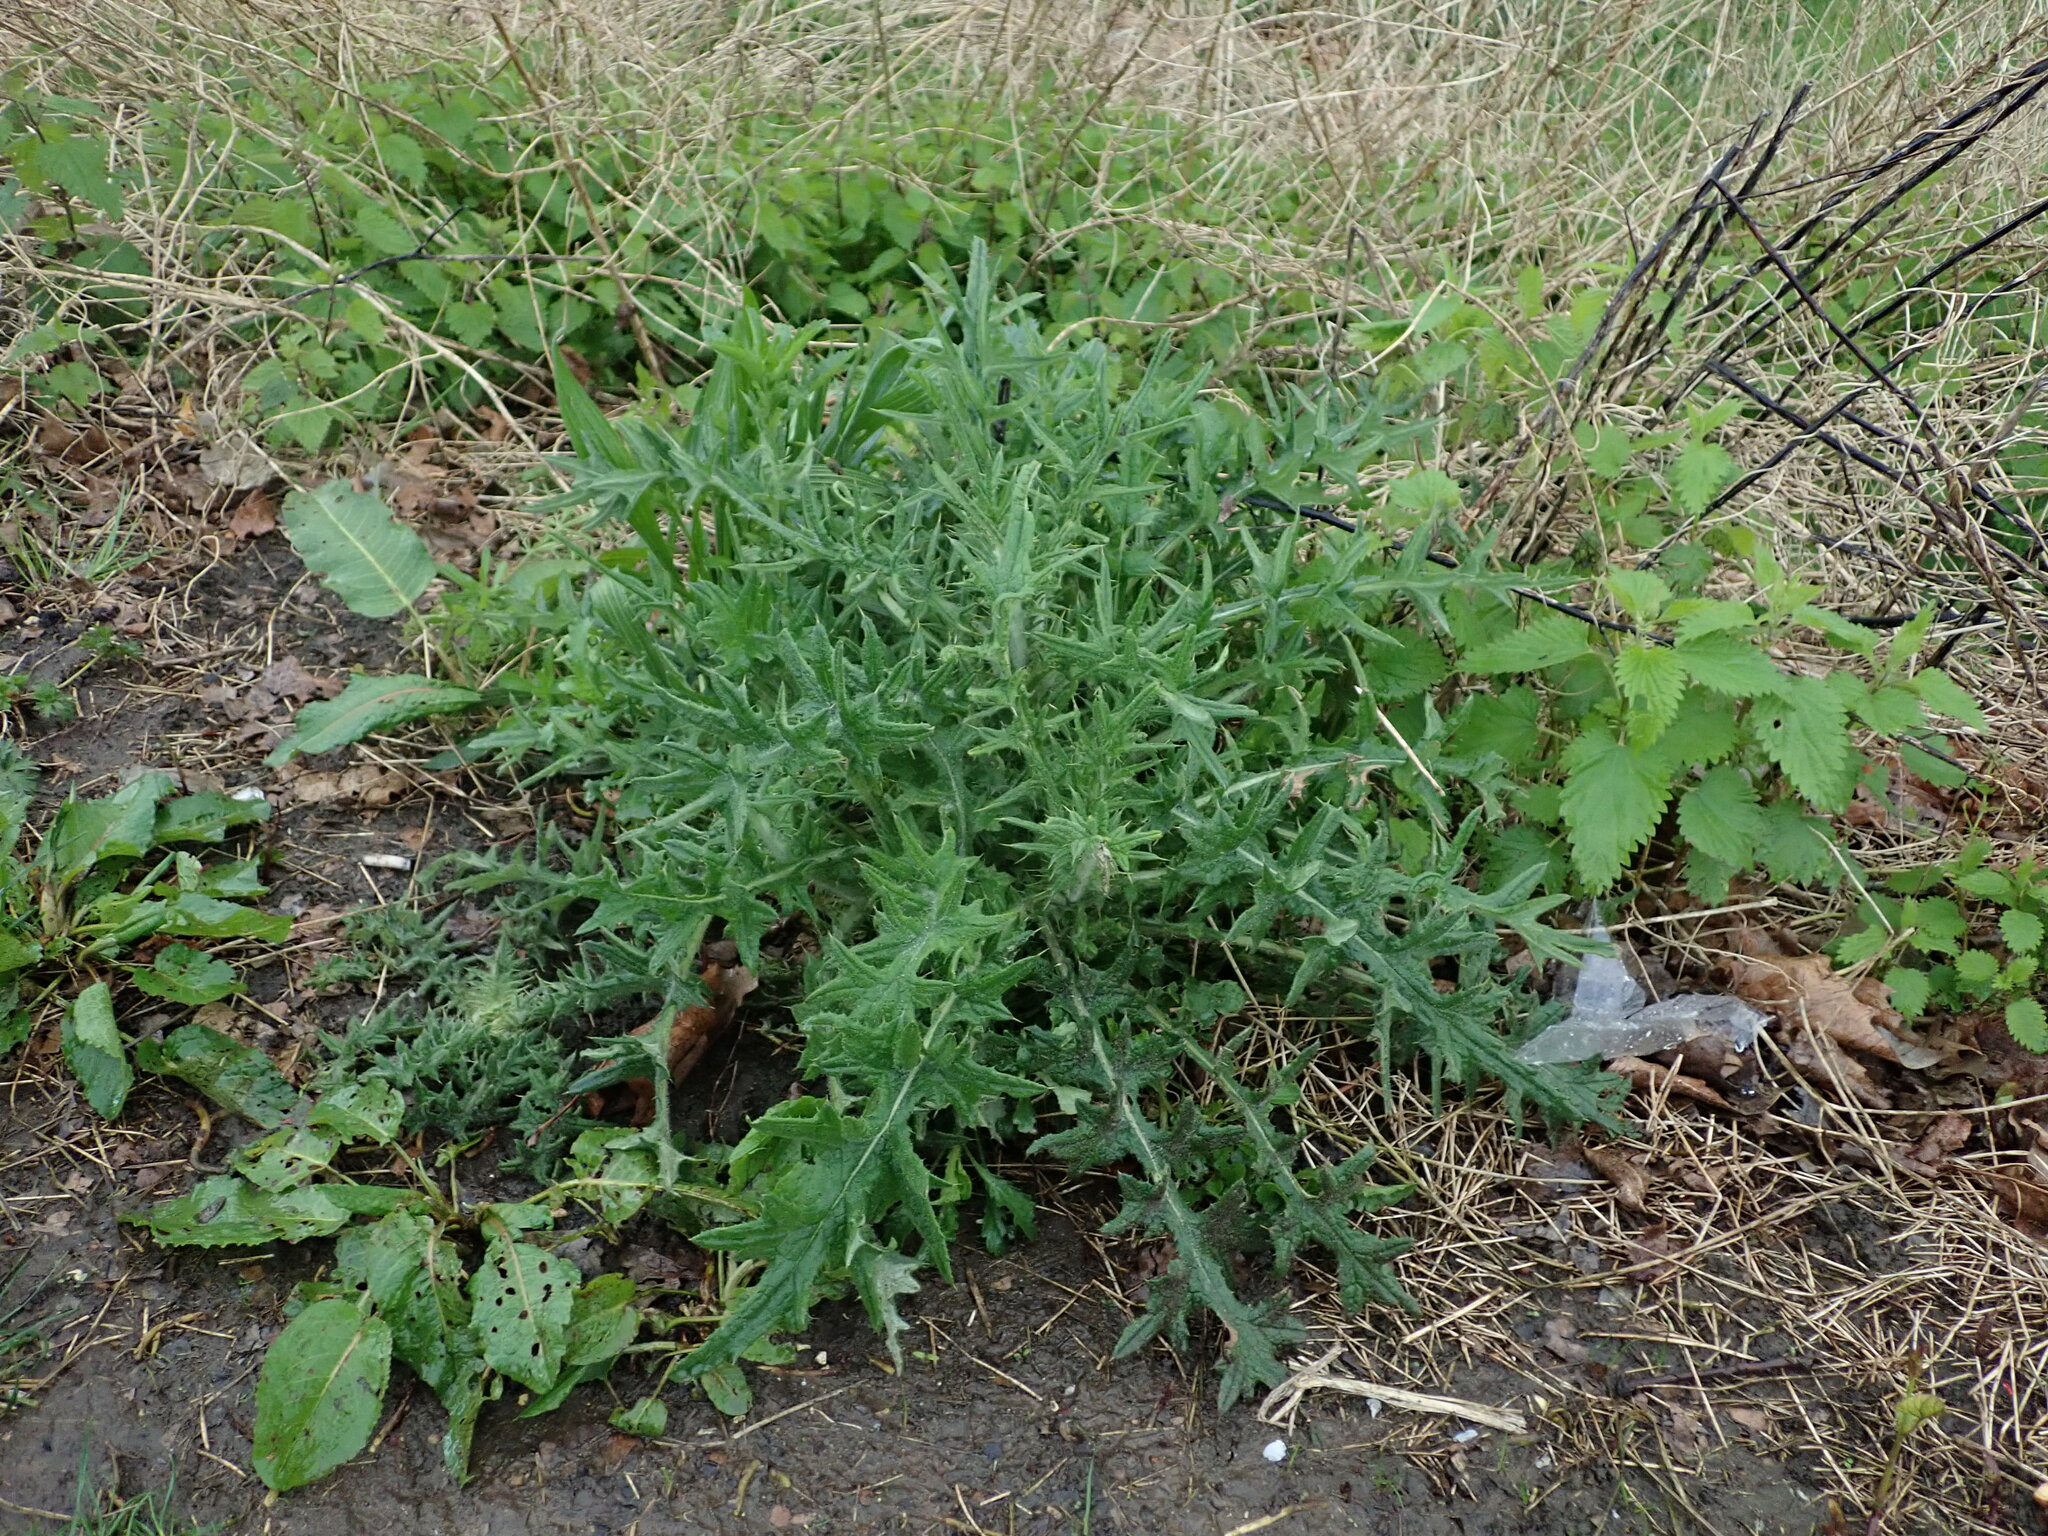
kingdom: Plantae
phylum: Tracheophyta
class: Magnoliopsida
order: Asterales
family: Asteraceae
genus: Cirsium
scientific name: Cirsium vulgare
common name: Bull thistle
